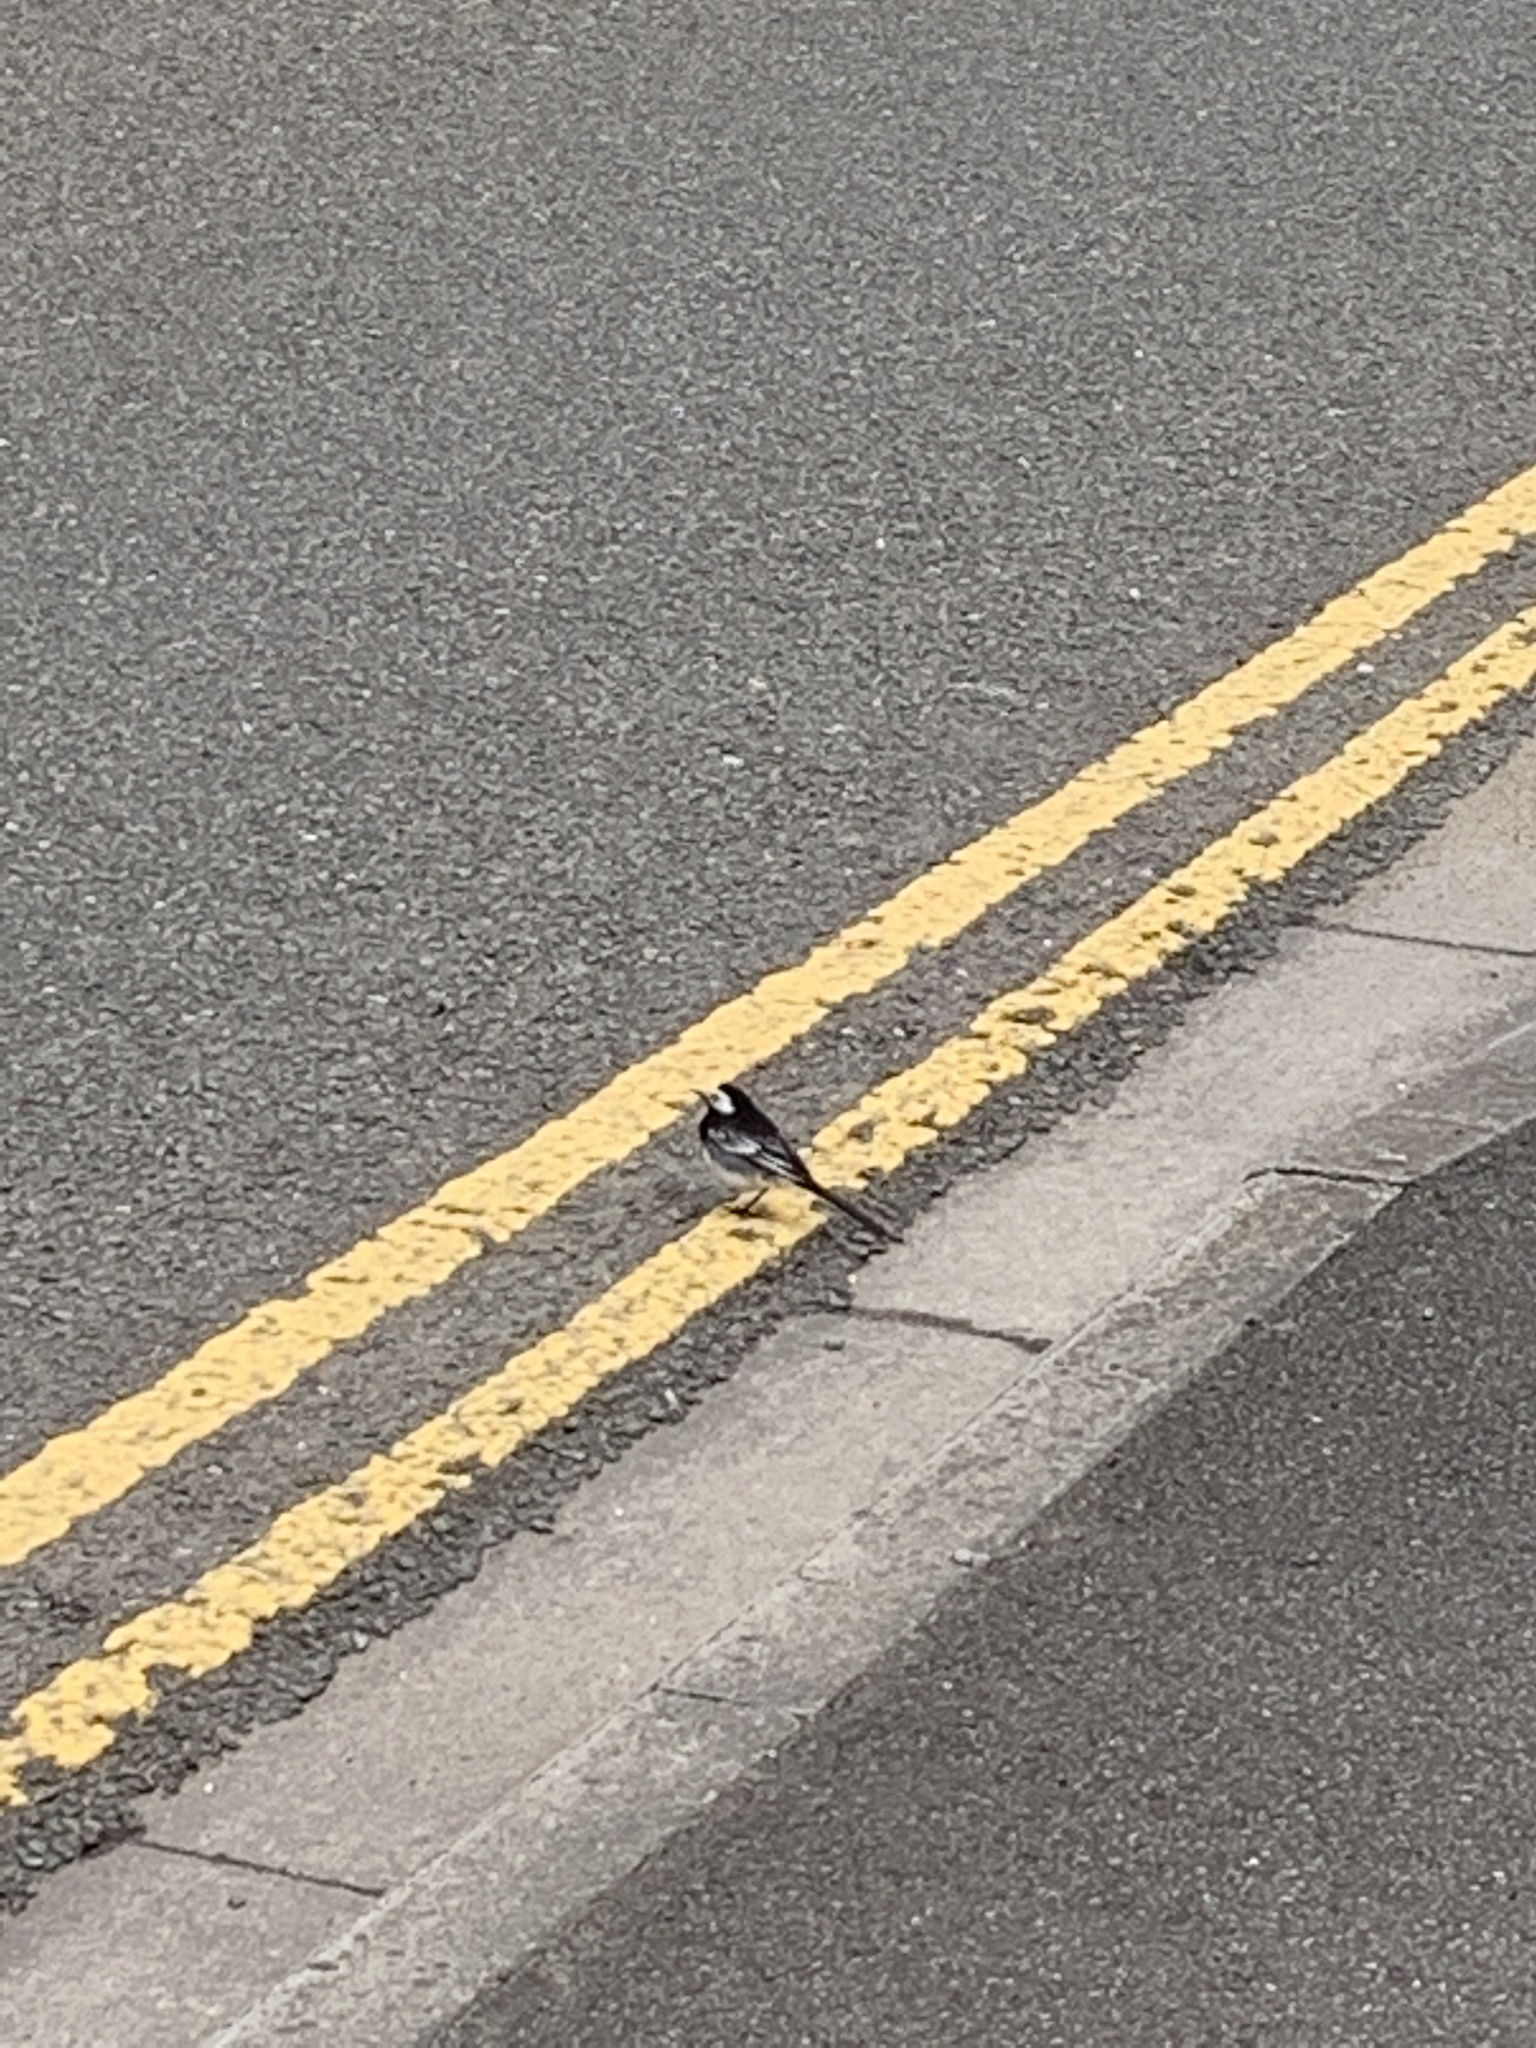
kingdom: Animalia
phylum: Chordata
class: Aves
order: Passeriformes
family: Motacillidae
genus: Motacilla
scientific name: Motacilla alba
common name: White wagtail
